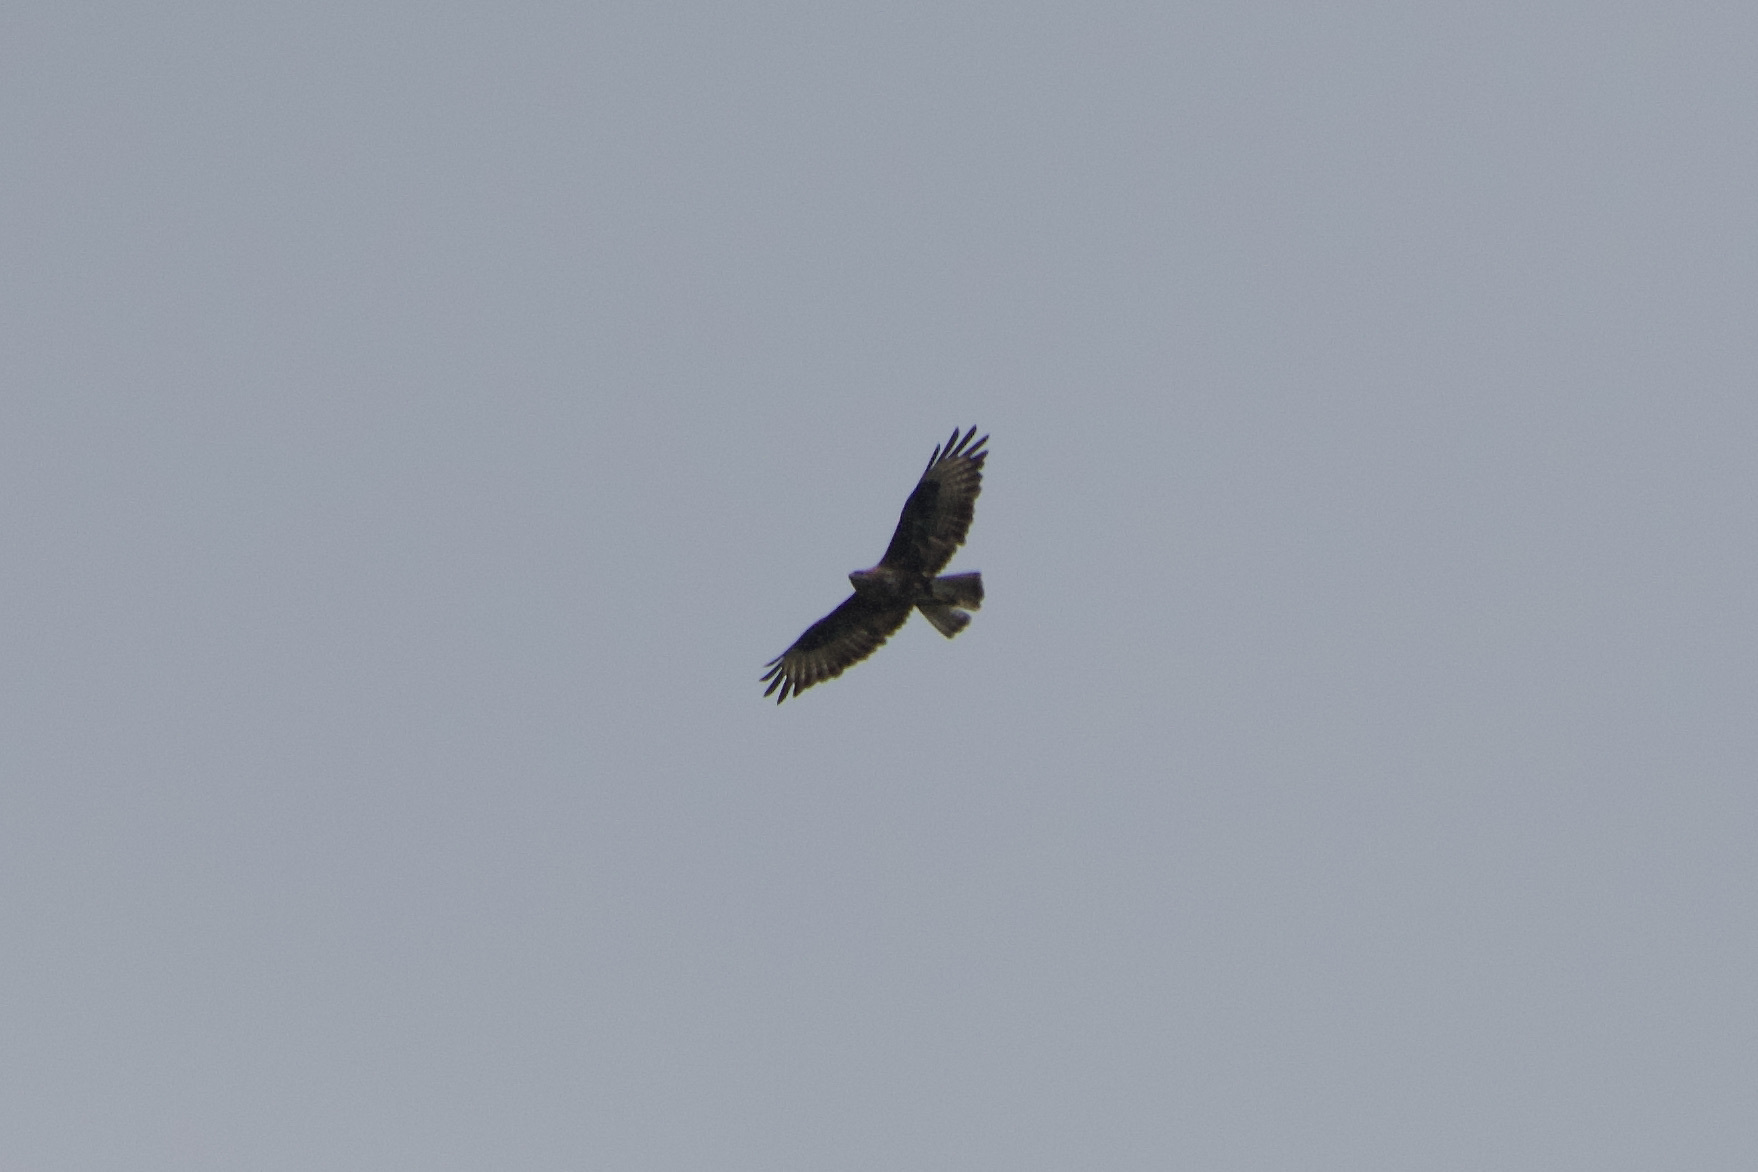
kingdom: Animalia
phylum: Chordata
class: Aves
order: Accipitriformes
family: Accipitridae
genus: Buteo
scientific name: Buteo buteo
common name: Common buzzard
